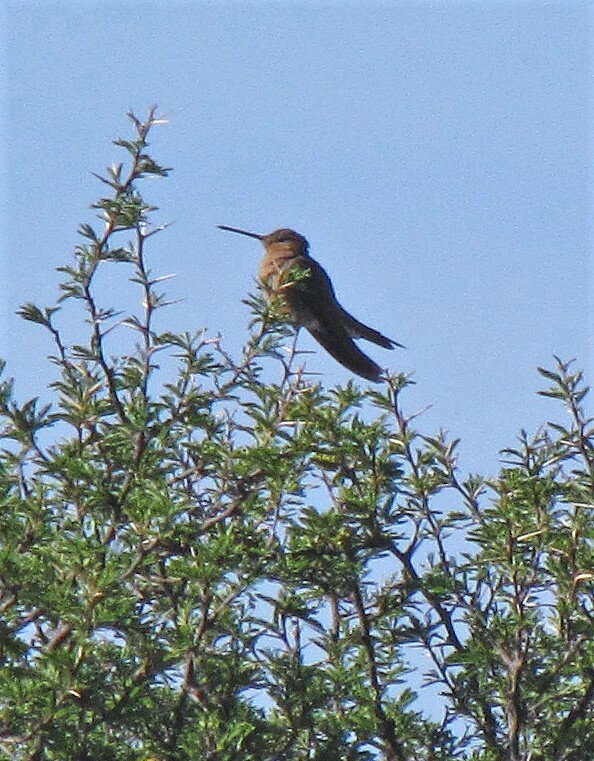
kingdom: Animalia
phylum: Chordata
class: Aves
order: Apodiformes
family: Trochilidae
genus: Patagona
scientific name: Patagona gigas
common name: Giant hummingbird
